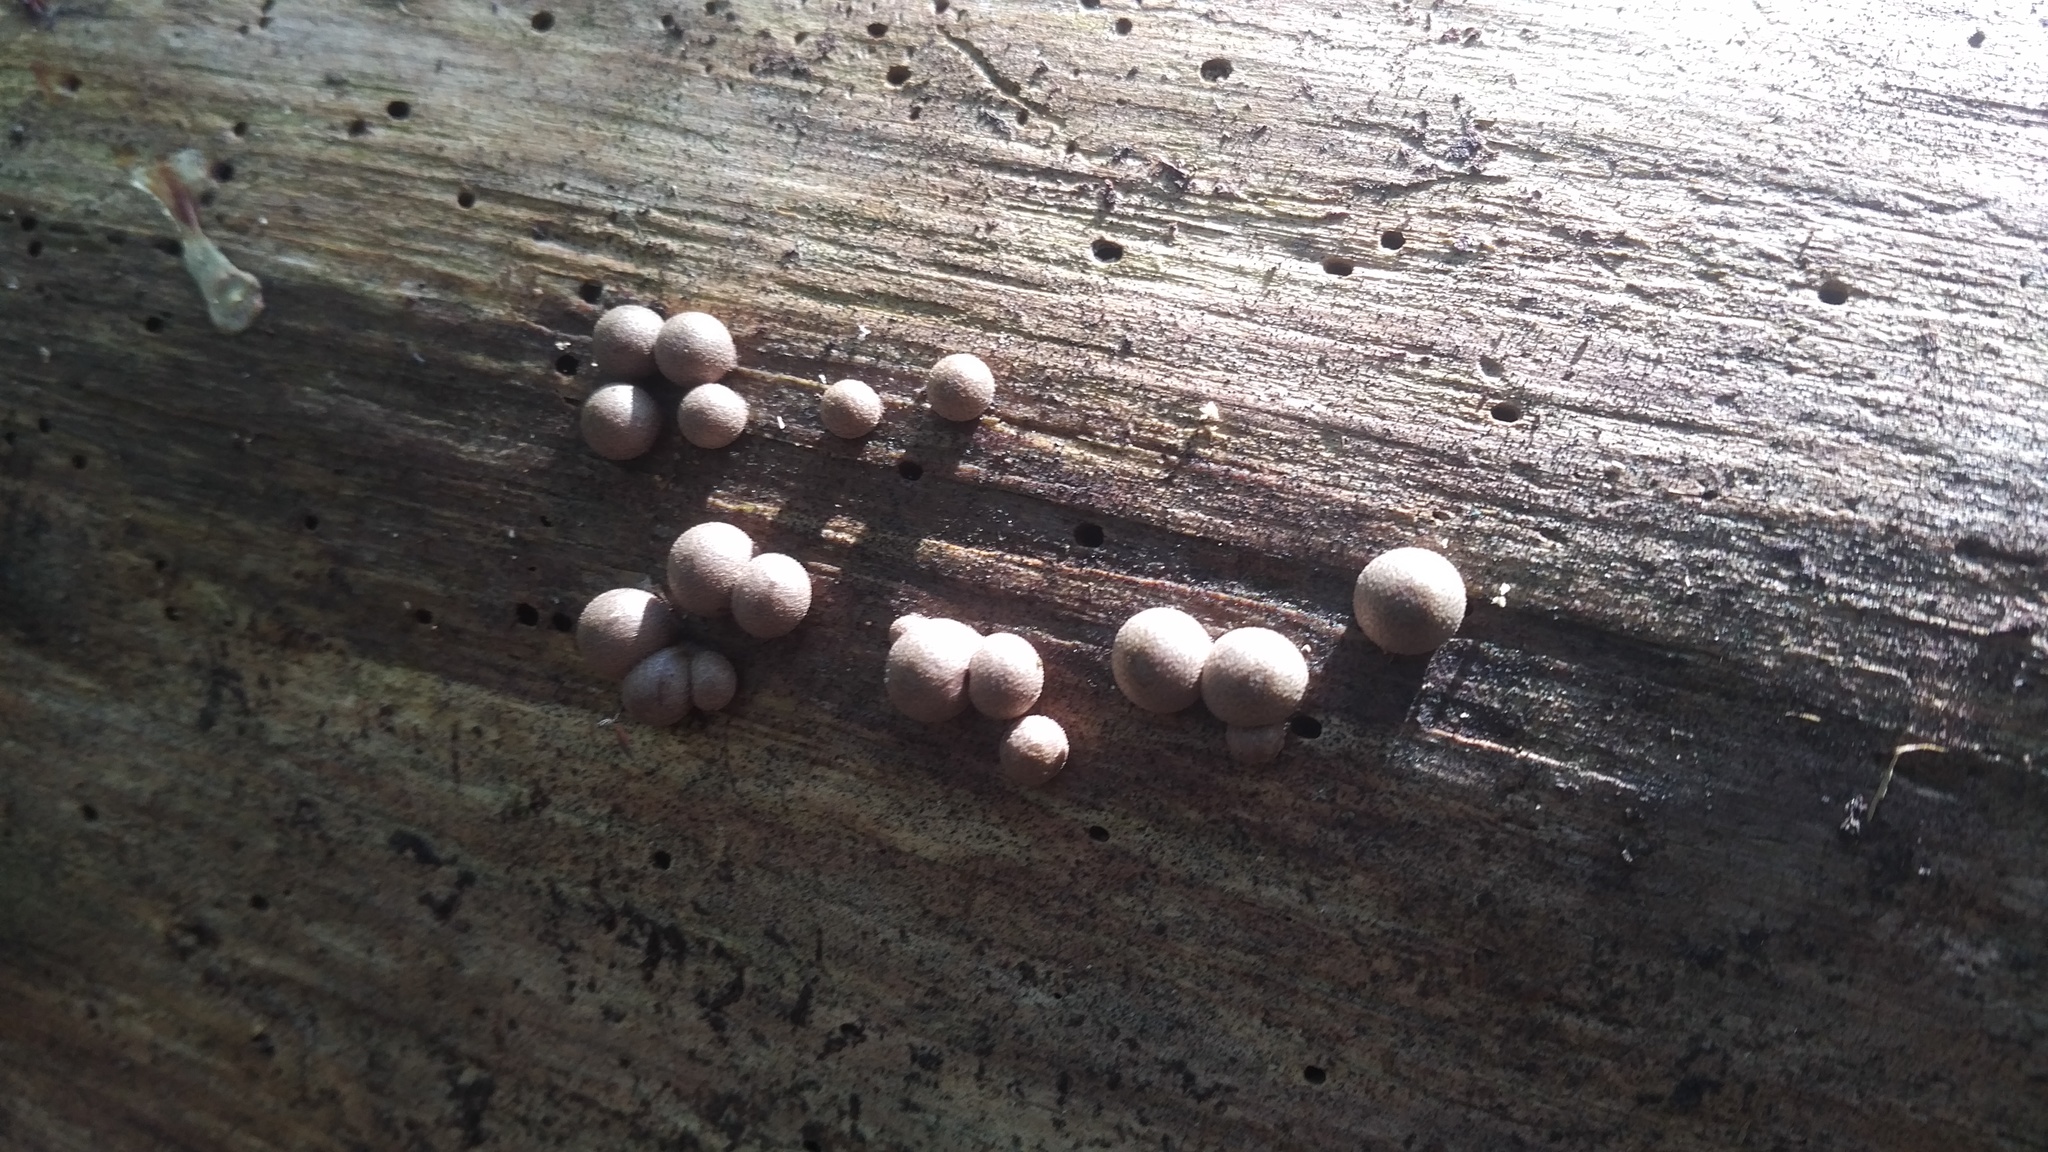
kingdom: Protozoa
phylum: Mycetozoa
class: Myxomycetes
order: Cribrariales
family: Tubiferaceae
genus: Lycogala
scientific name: Lycogala epidendrum
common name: Wolf's milk
